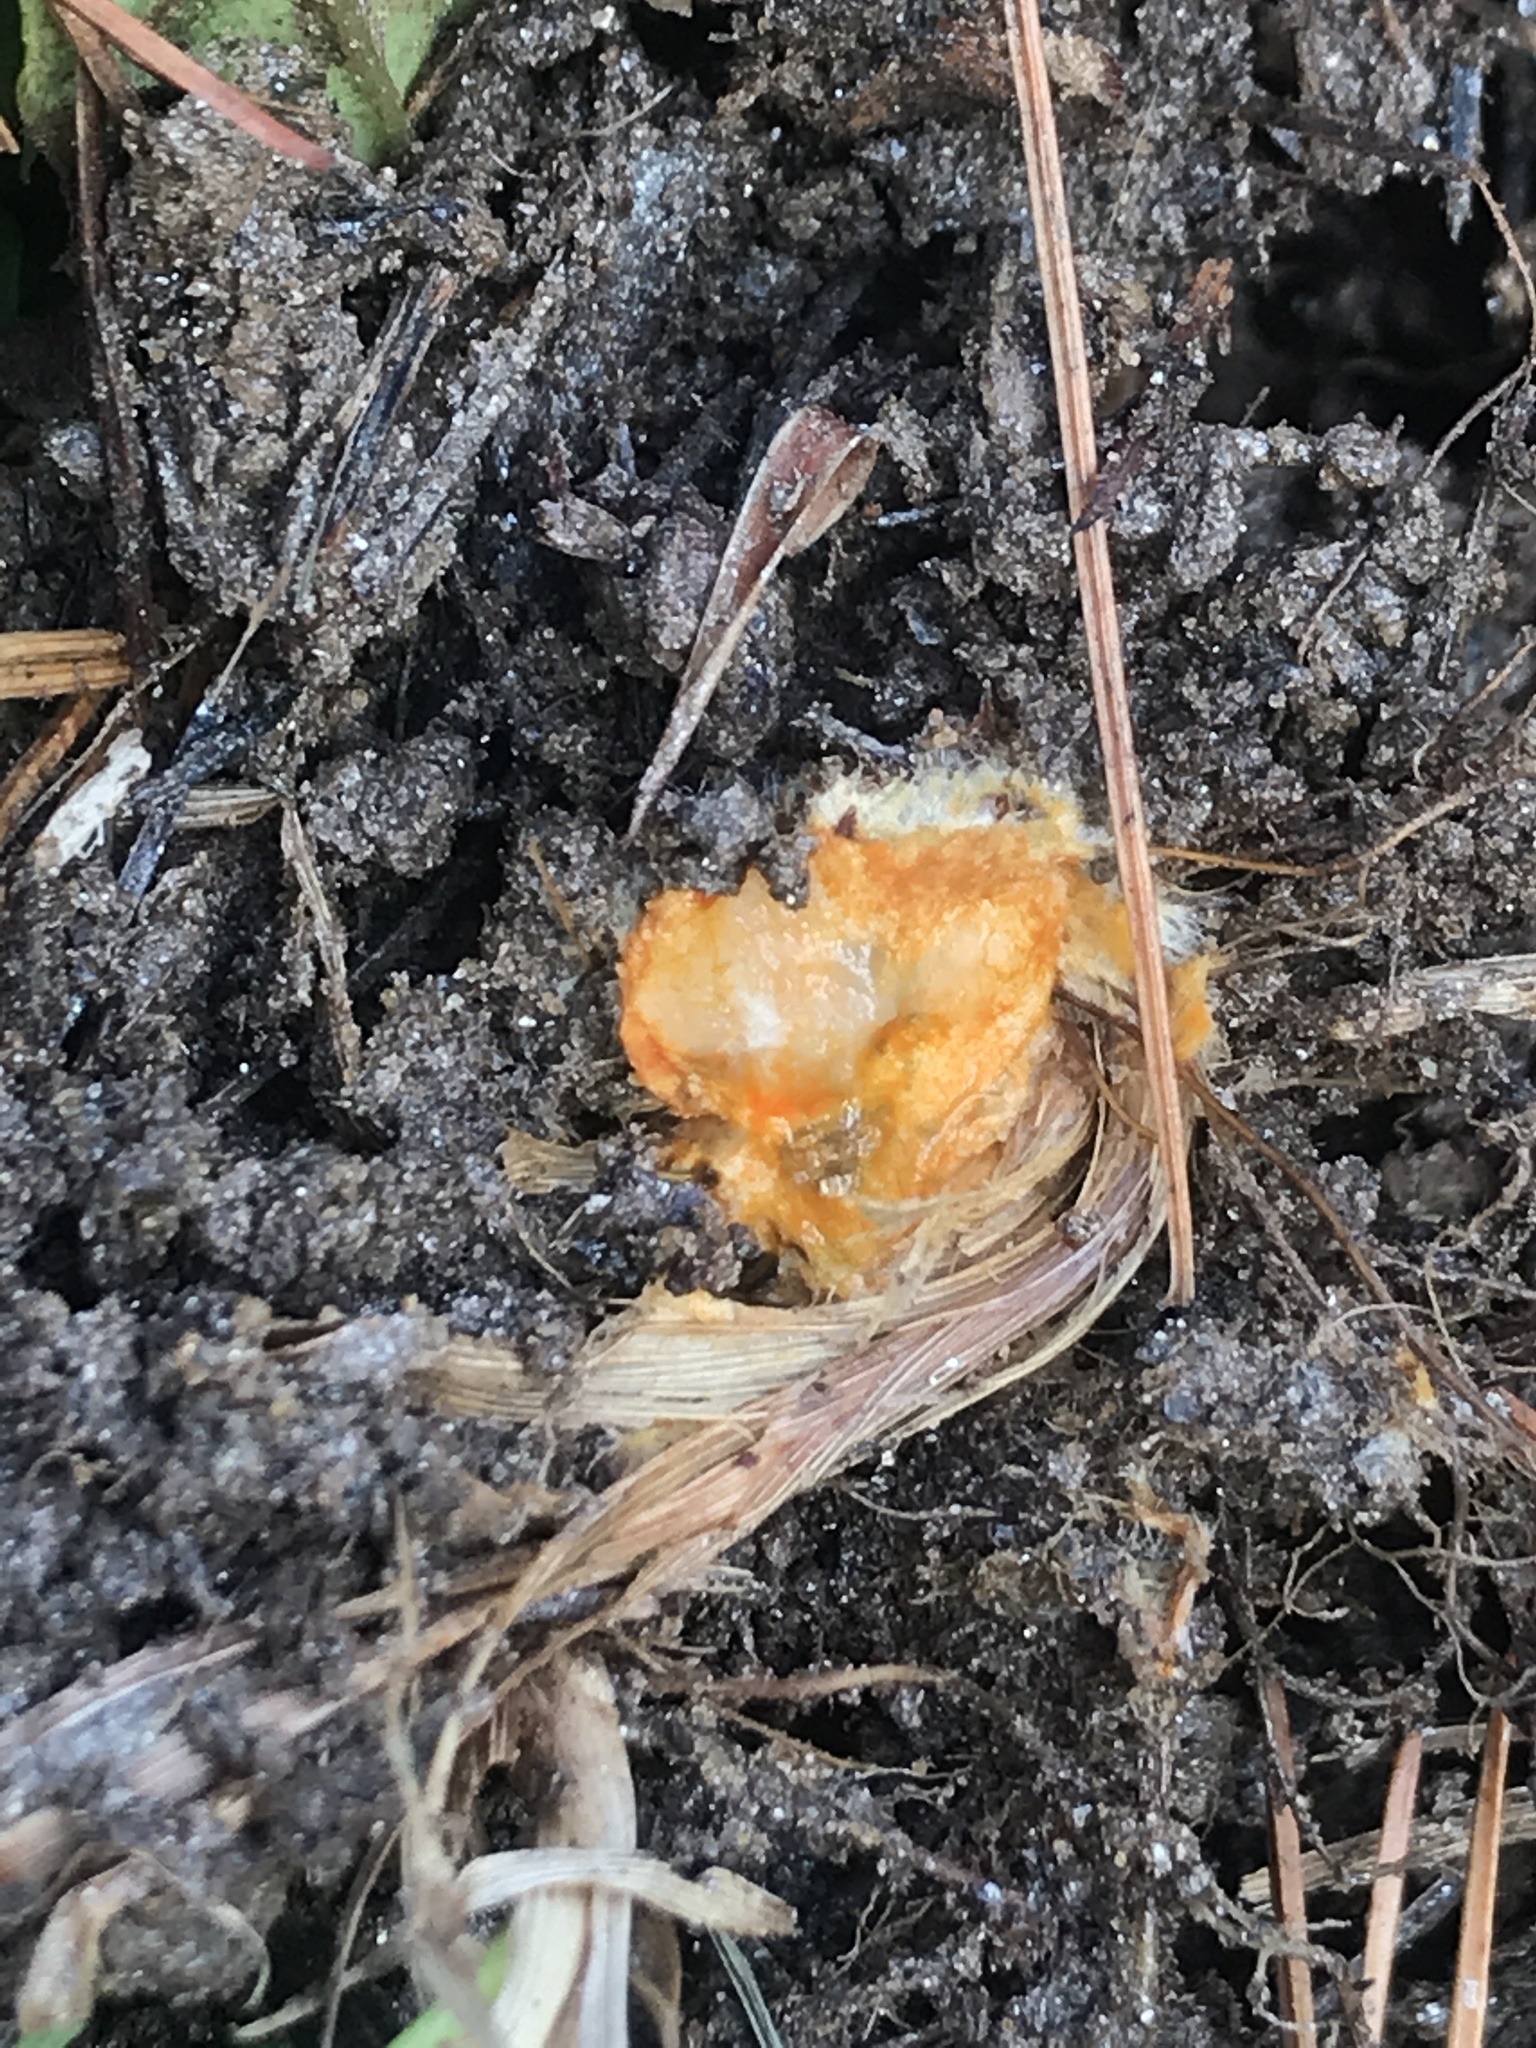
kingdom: Fungi
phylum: Basidiomycota
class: Agaricomycetes
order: Russulales
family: Russulaceae
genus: Lactarius
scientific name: Lactarius chelidonium
